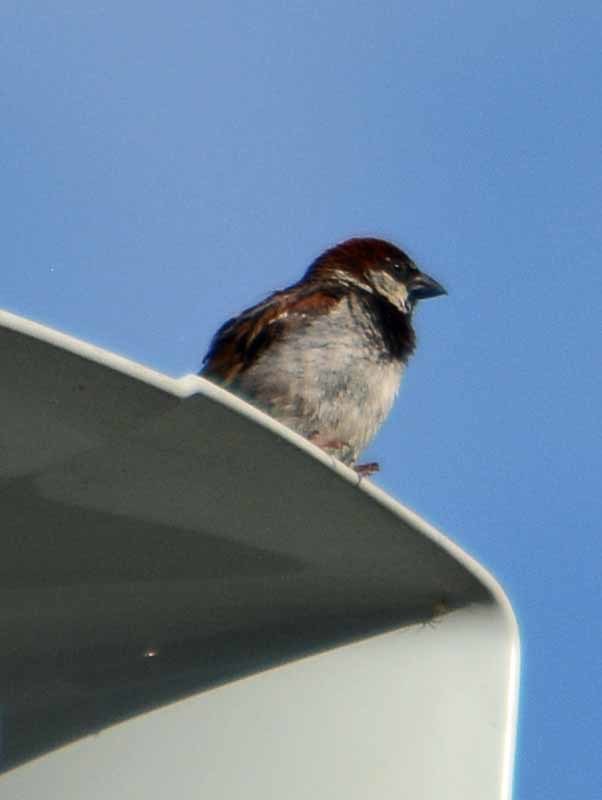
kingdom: Animalia
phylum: Chordata
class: Aves
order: Passeriformes
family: Passeridae
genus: Passer
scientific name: Passer domesticus
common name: House sparrow
